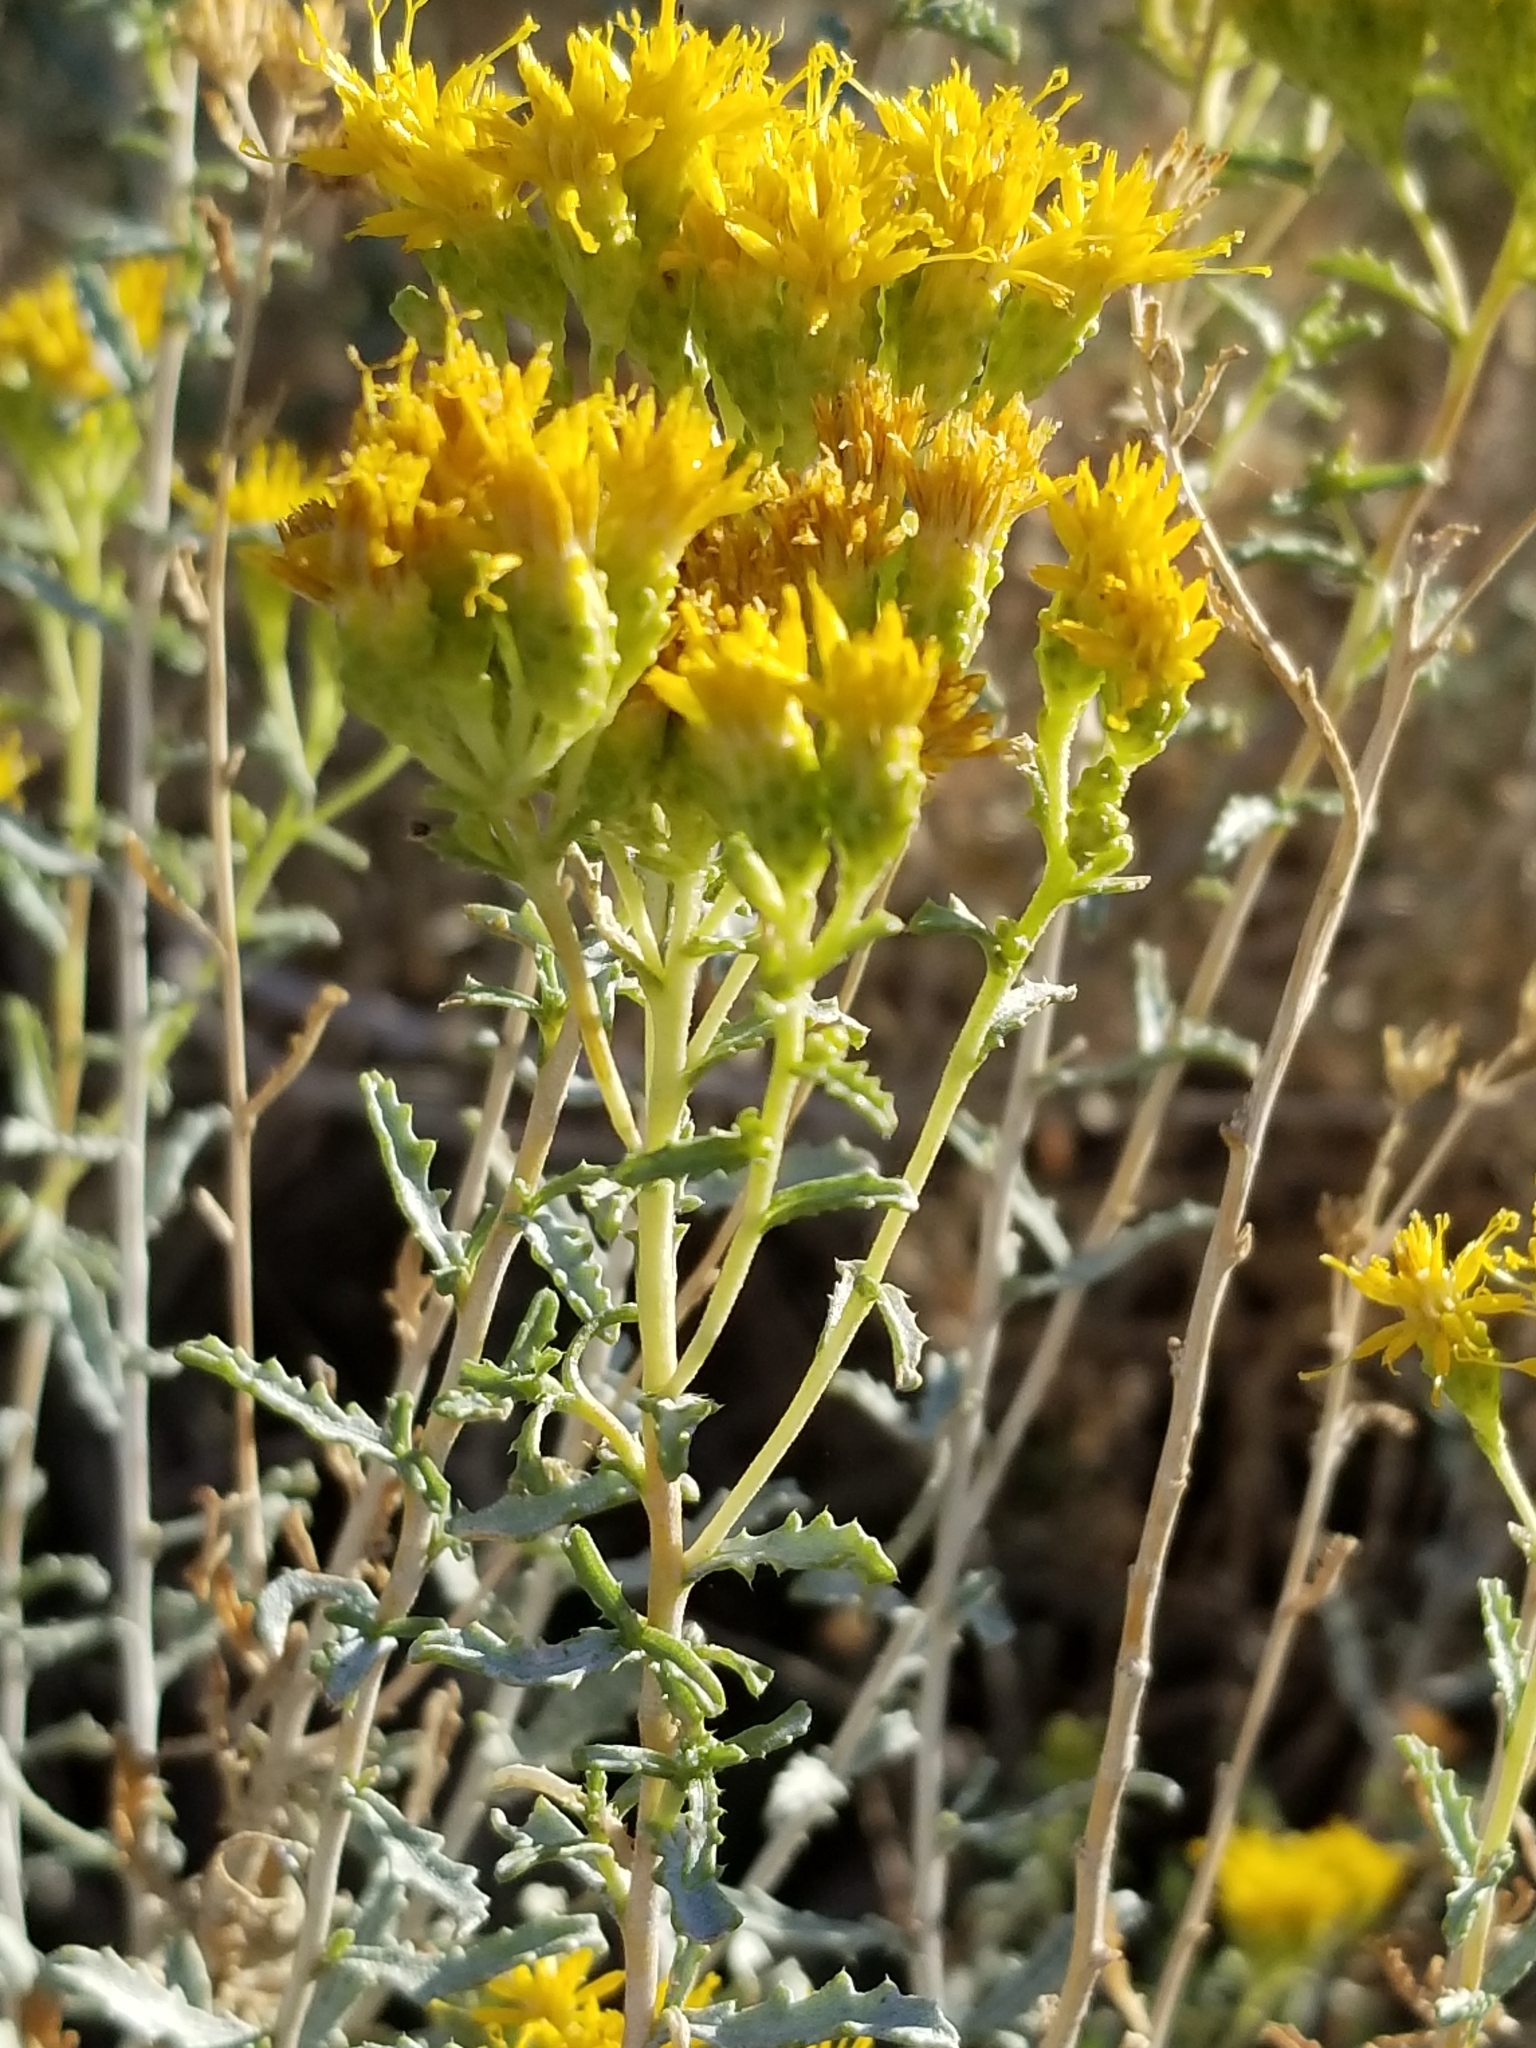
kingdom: Plantae
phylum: Tracheophyta
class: Magnoliopsida
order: Asterales
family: Asteraceae
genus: Isocoma
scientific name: Isocoma acradenia
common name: Alkali jimmyweed
